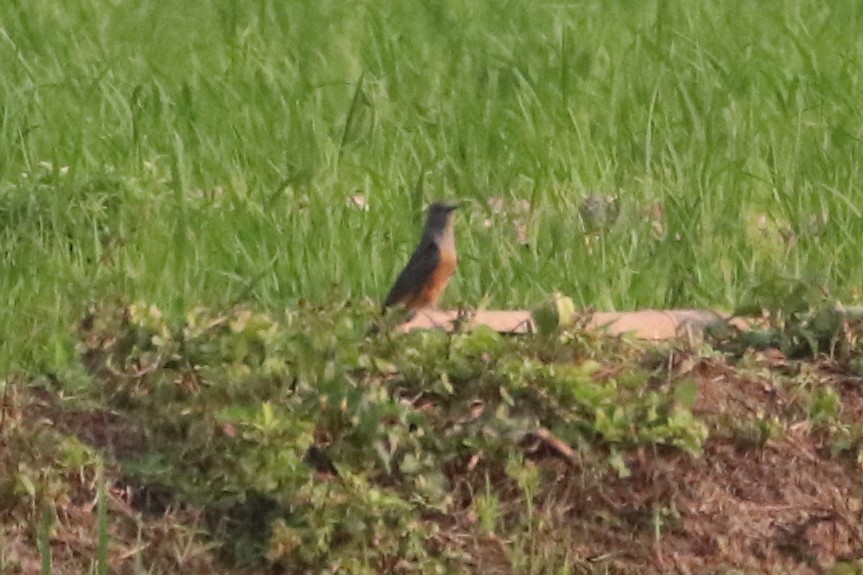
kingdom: Animalia
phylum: Chordata
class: Aves
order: Cuculiformes
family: Cuculidae
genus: Cacomantis
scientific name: Cacomantis merulinus
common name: Plaintive cuckoo
